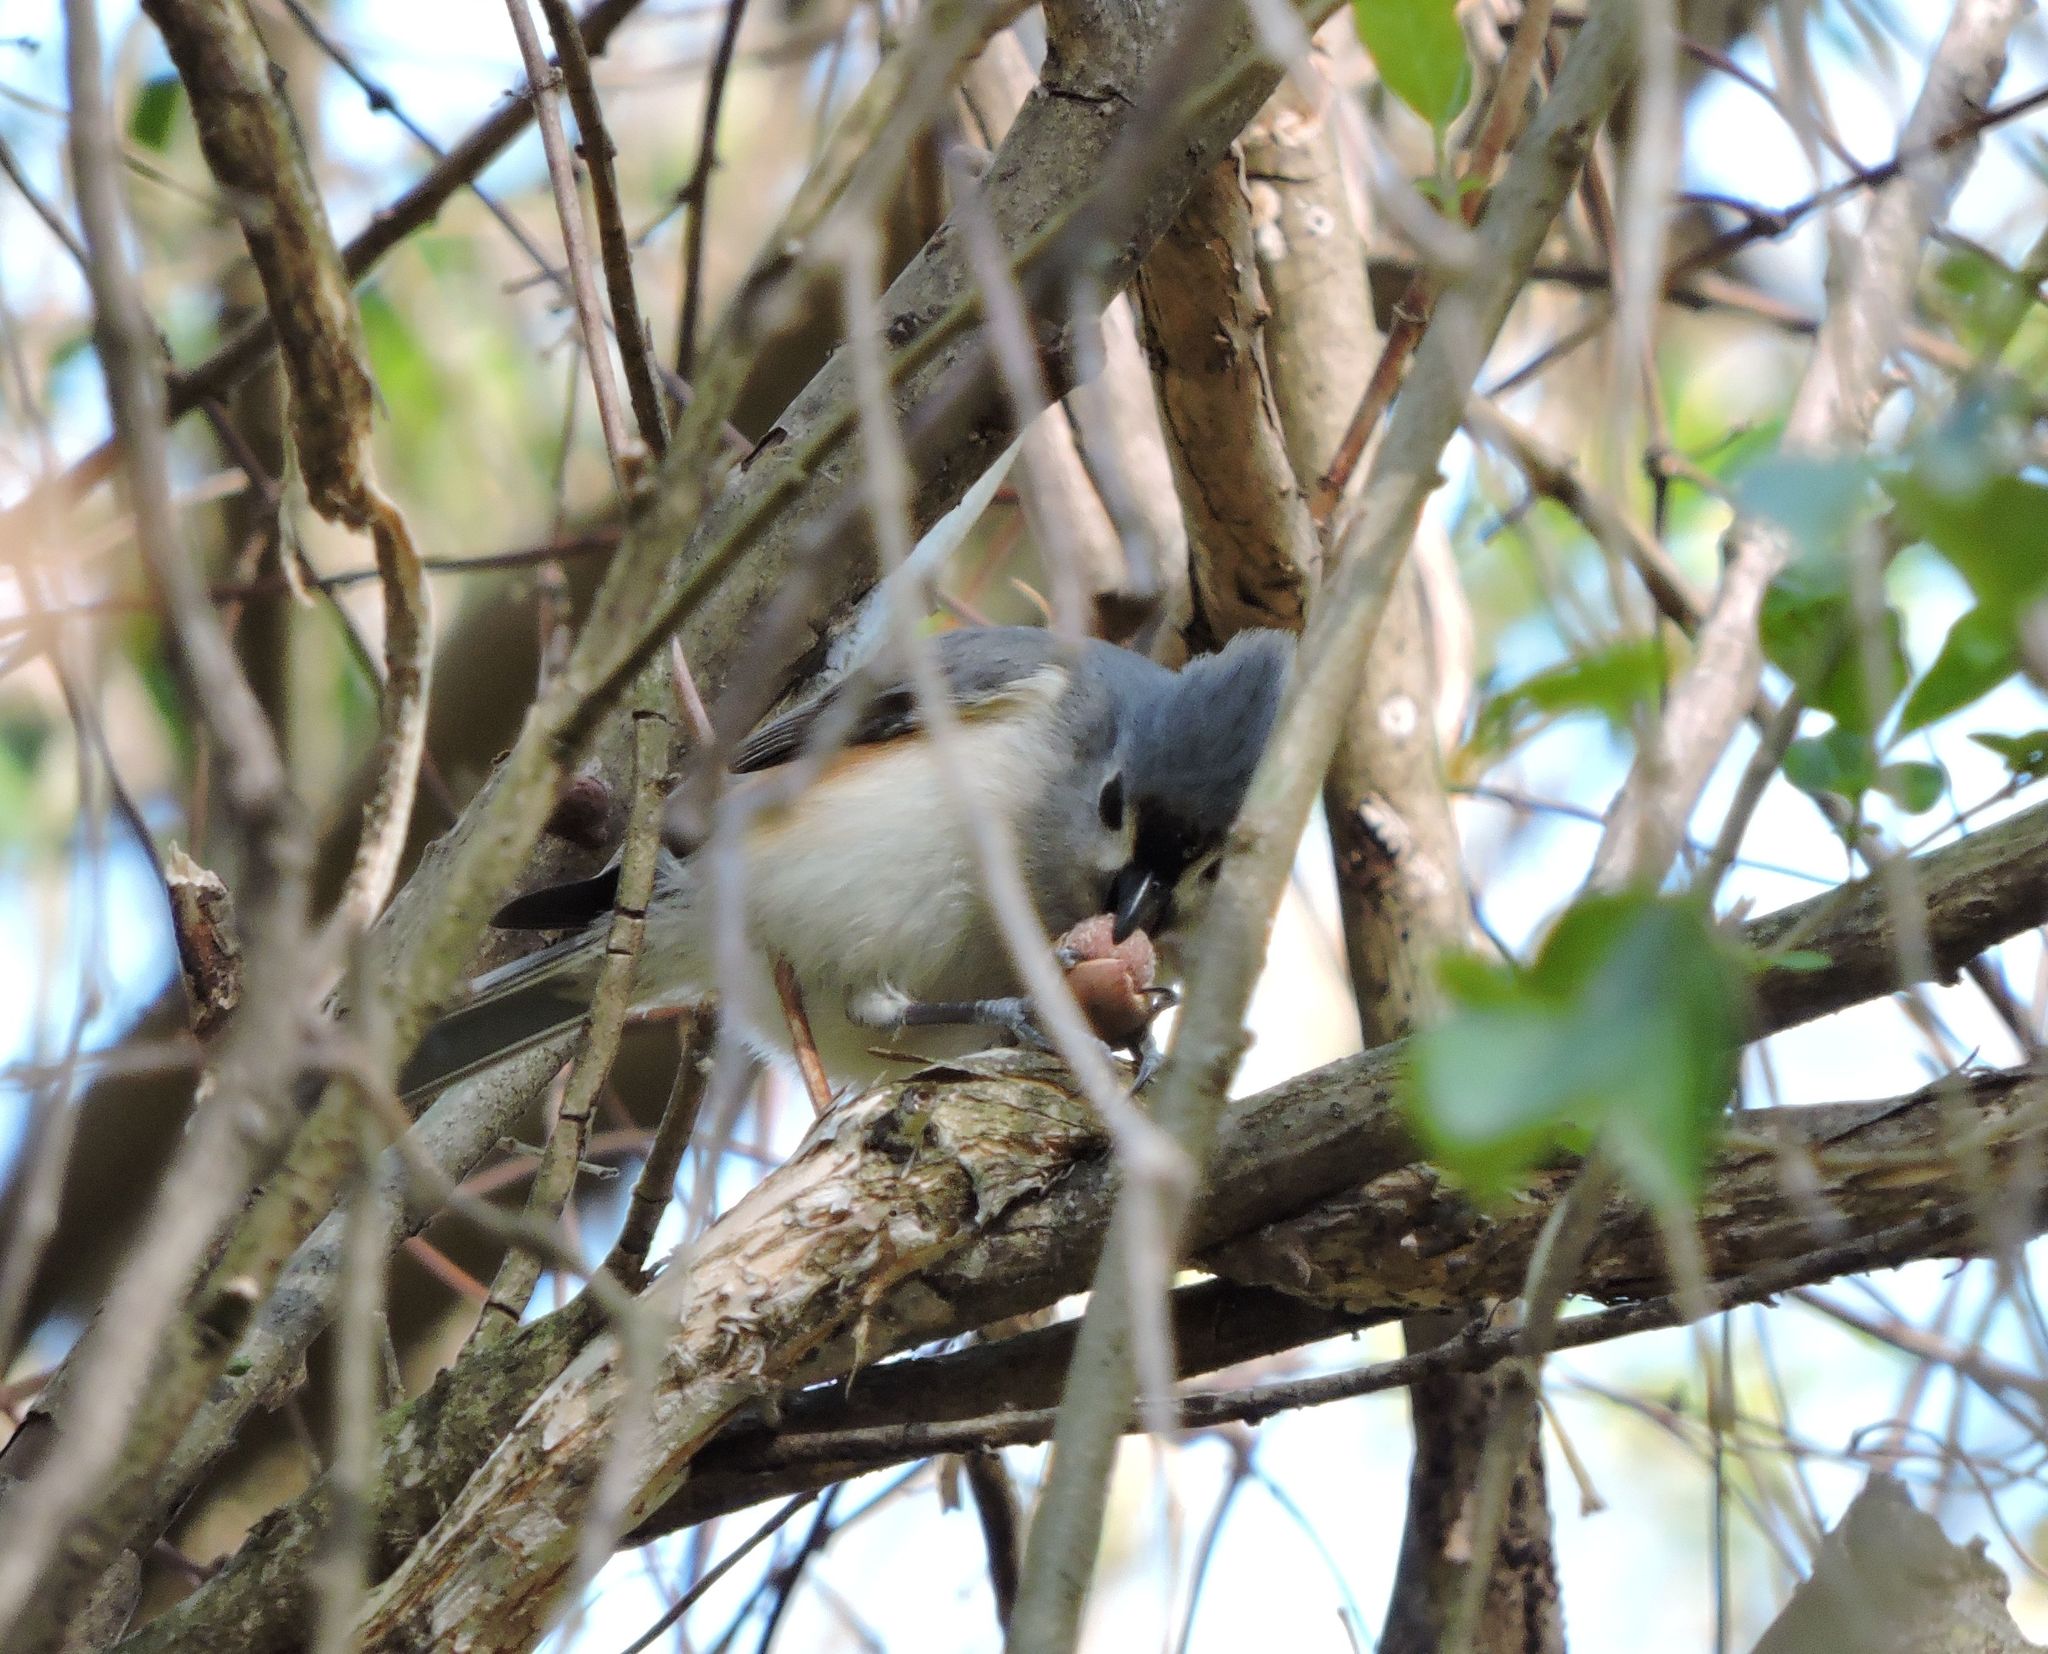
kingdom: Animalia
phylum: Chordata
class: Aves
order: Passeriformes
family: Paridae
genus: Baeolophus
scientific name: Baeolophus bicolor
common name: Tufted titmouse
